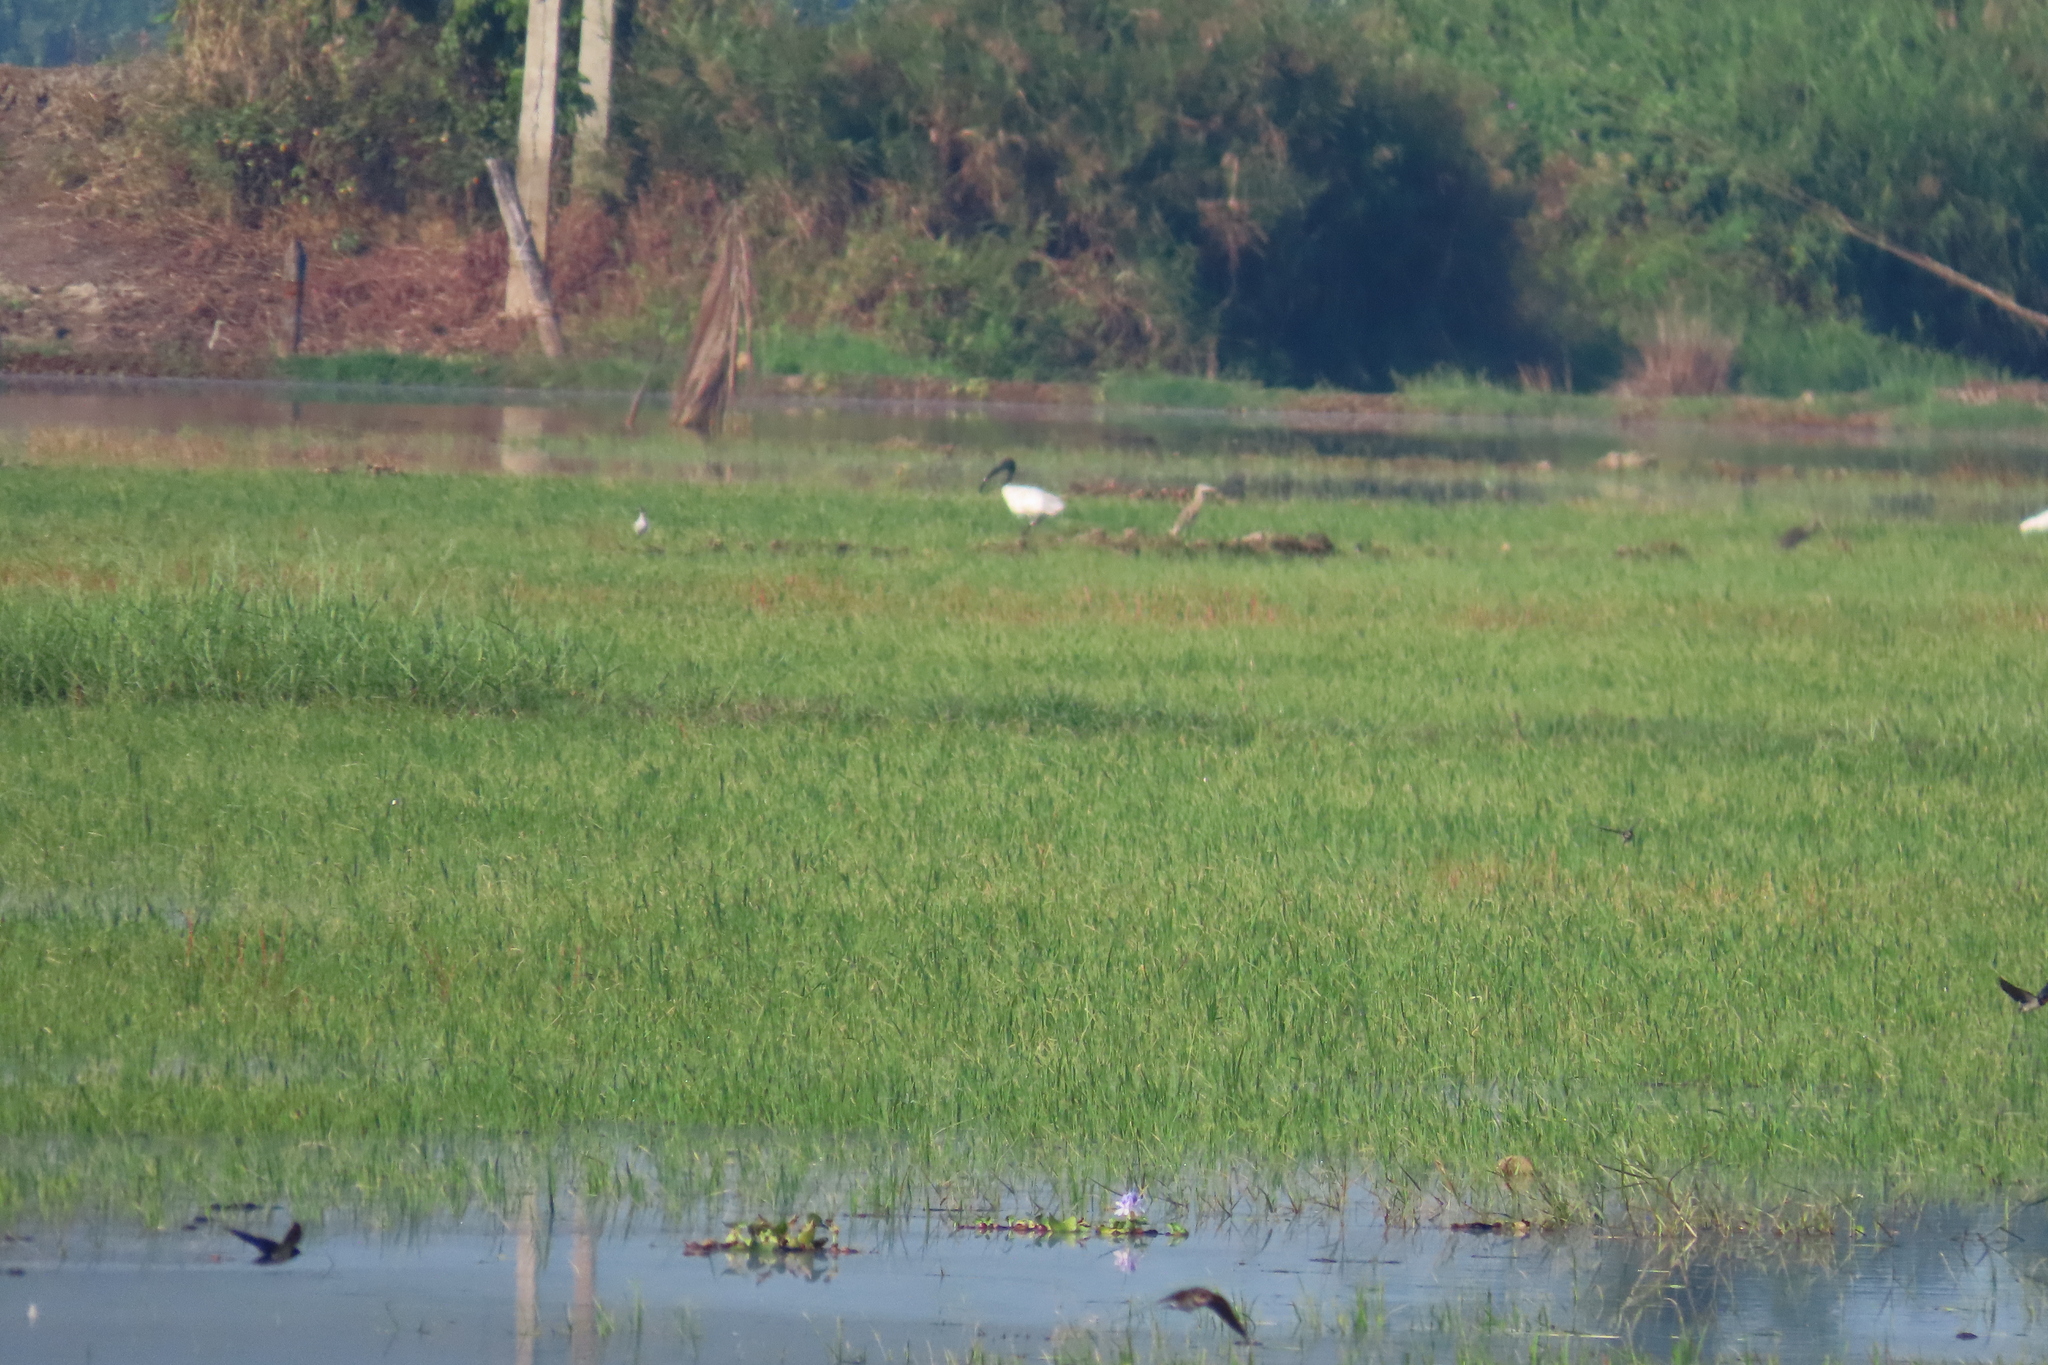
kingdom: Animalia
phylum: Chordata
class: Aves
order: Pelecaniformes
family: Threskiornithidae
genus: Threskiornis
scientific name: Threskiornis melanocephalus
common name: Black-headed ibis
